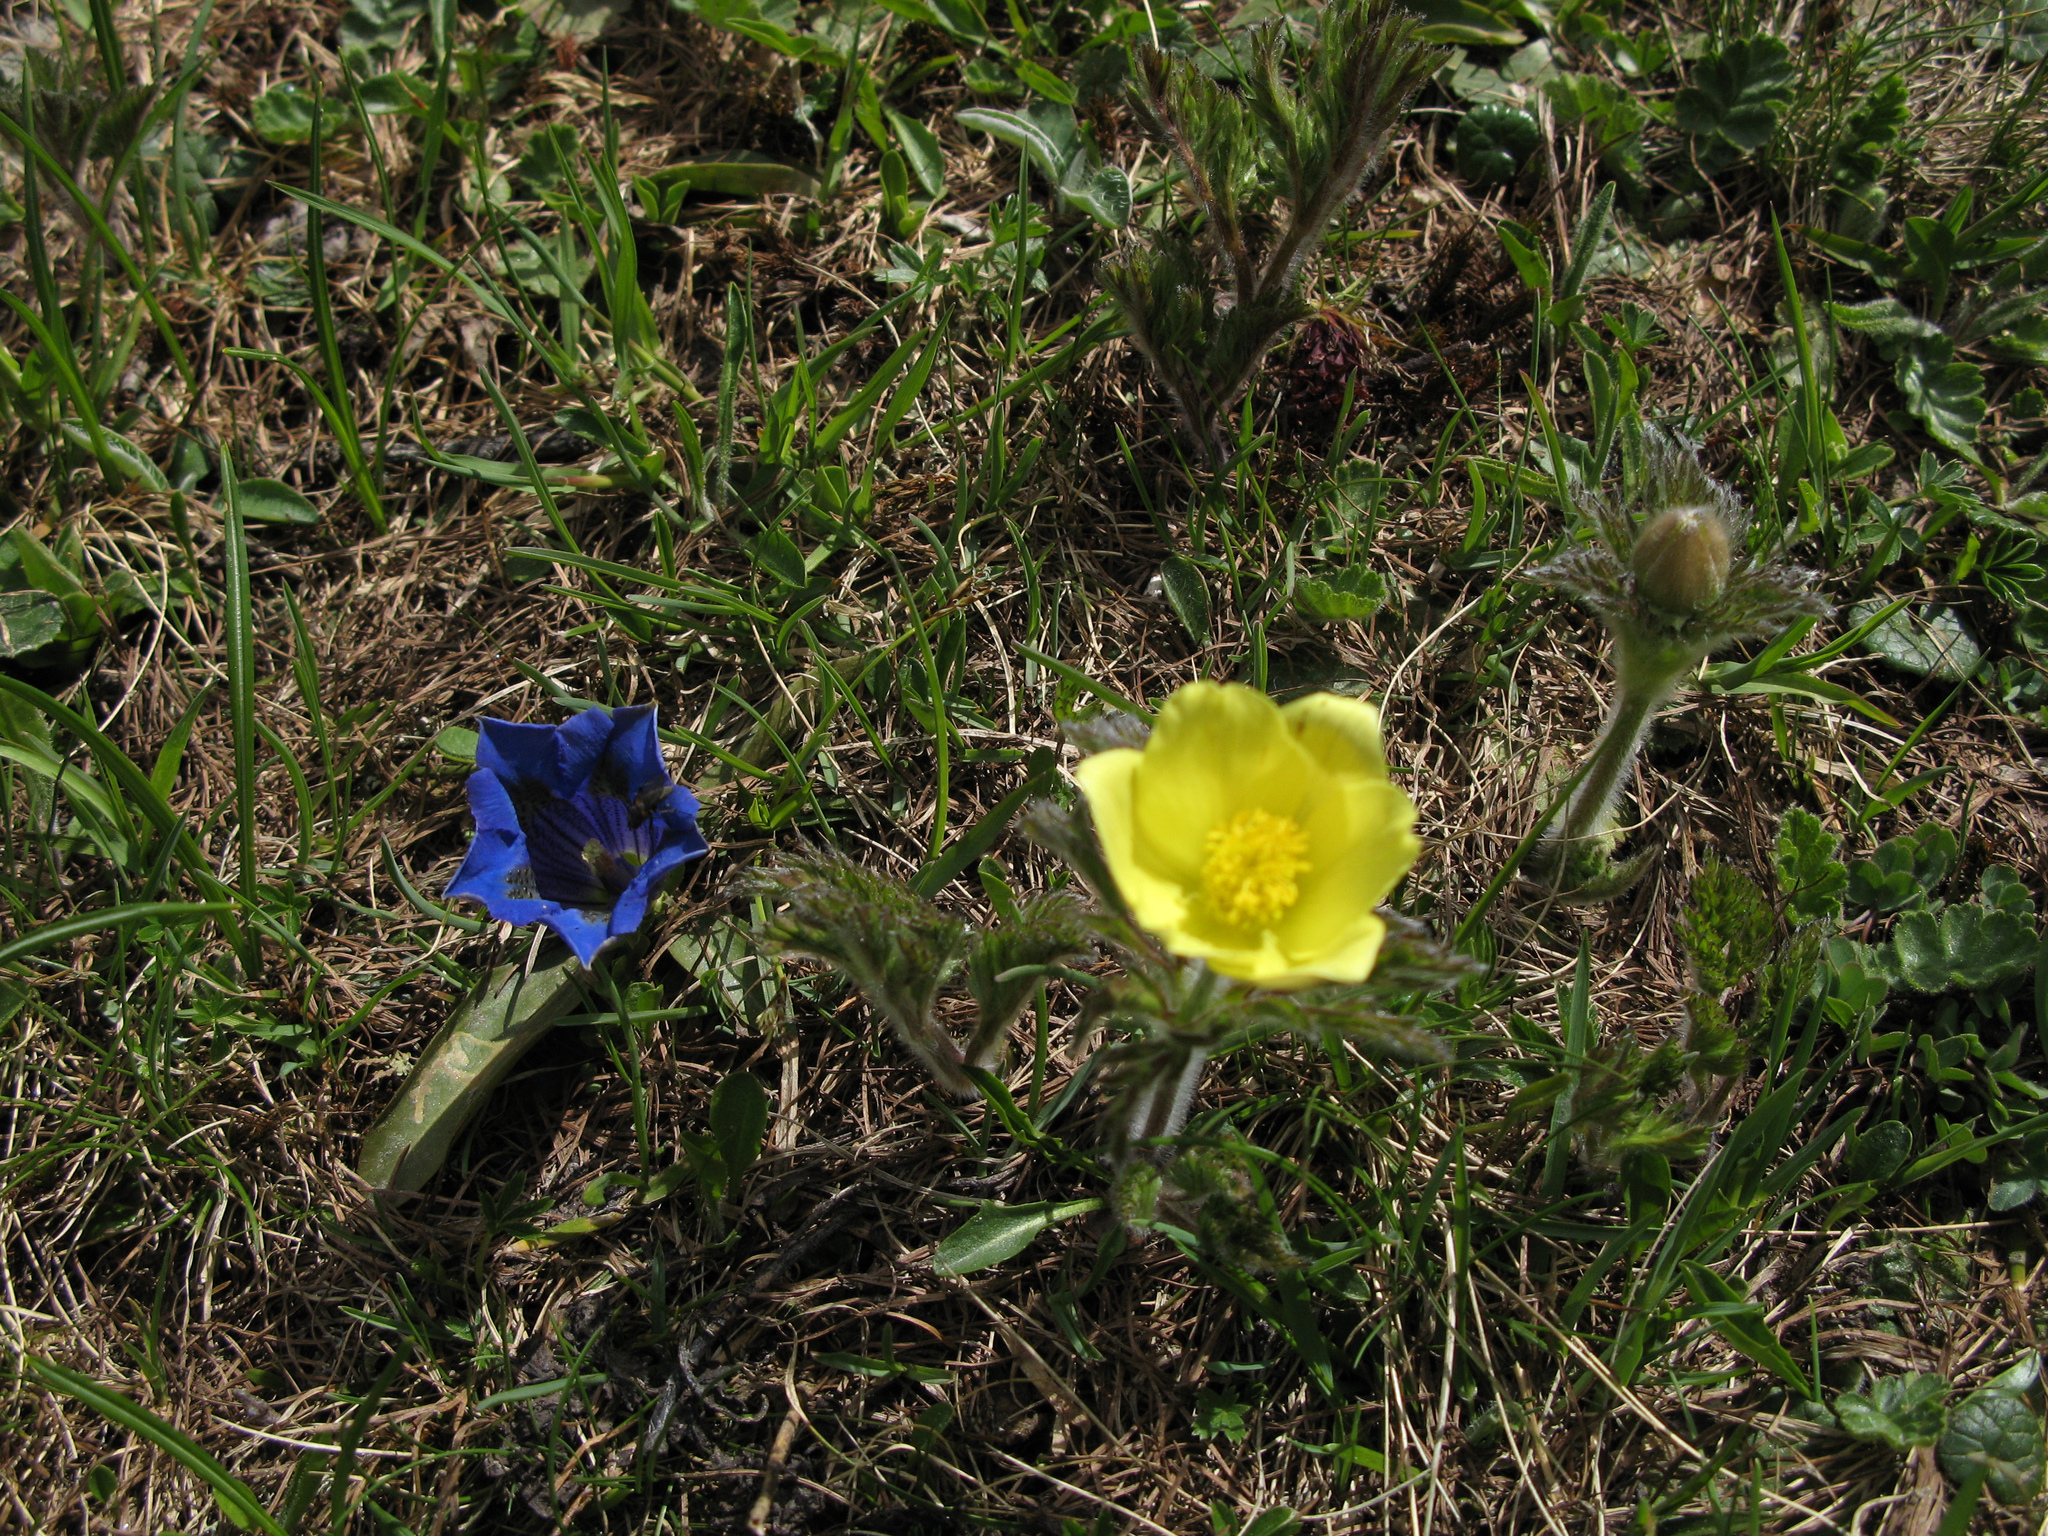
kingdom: Plantae
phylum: Tracheophyta
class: Magnoliopsida
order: Gentianales
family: Gentianaceae
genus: Gentiana
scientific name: Gentiana acaulis
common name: Trumpet gentian
